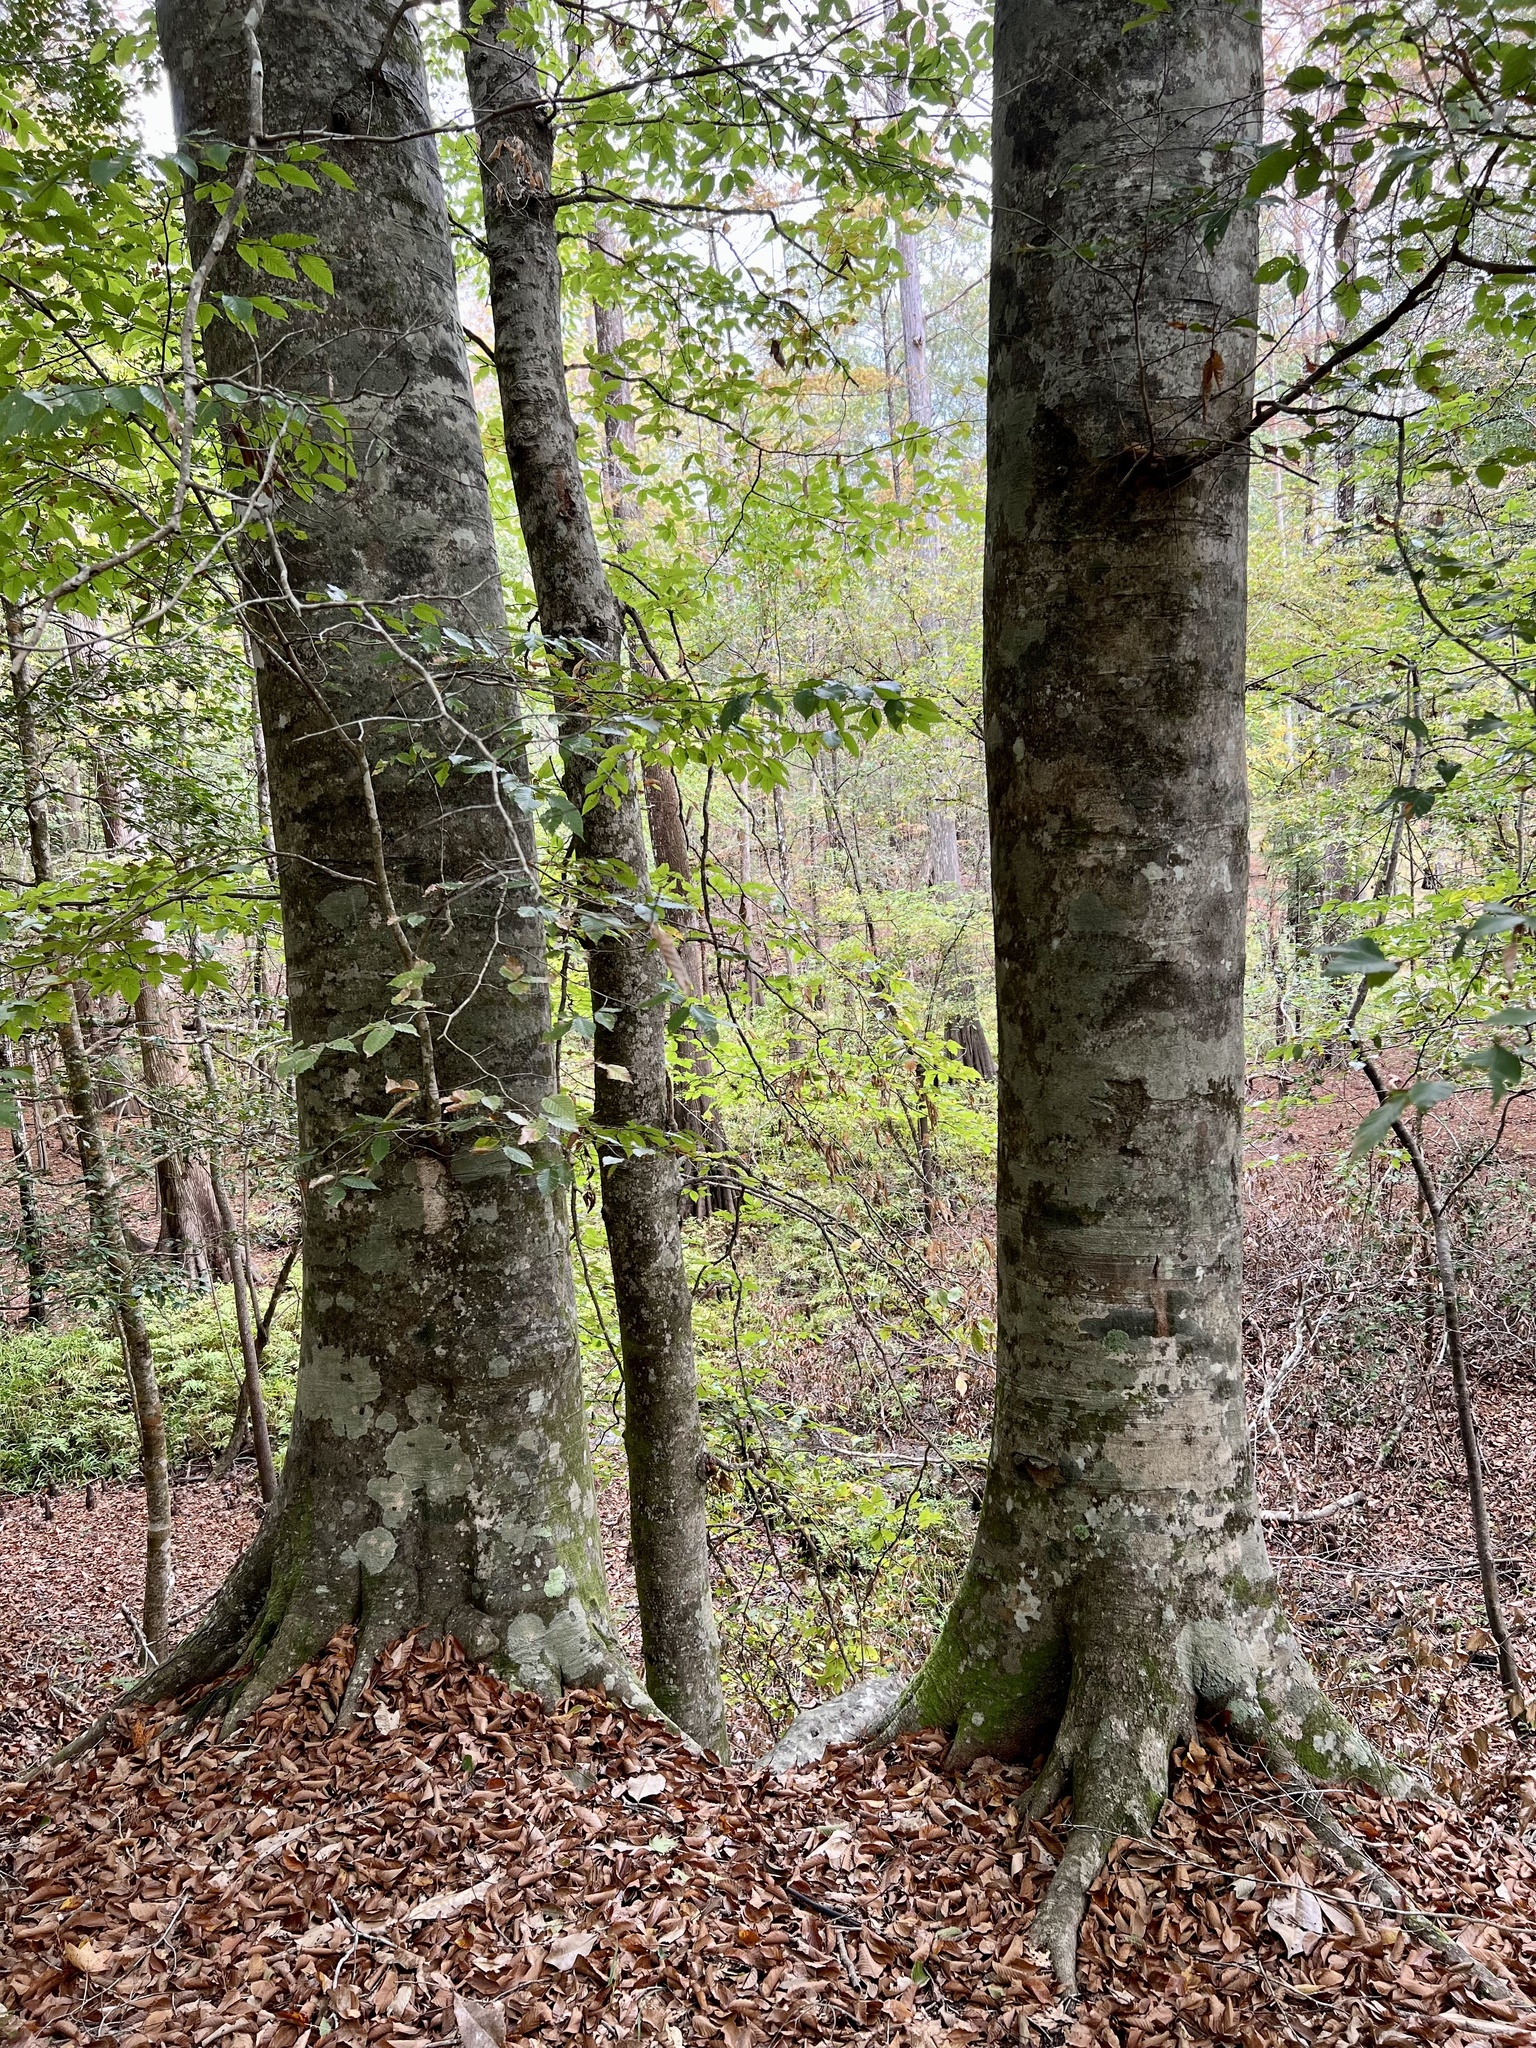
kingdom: Plantae
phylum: Tracheophyta
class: Magnoliopsida
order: Fagales
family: Fagaceae
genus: Fagus
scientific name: Fagus grandifolia
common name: American beech
